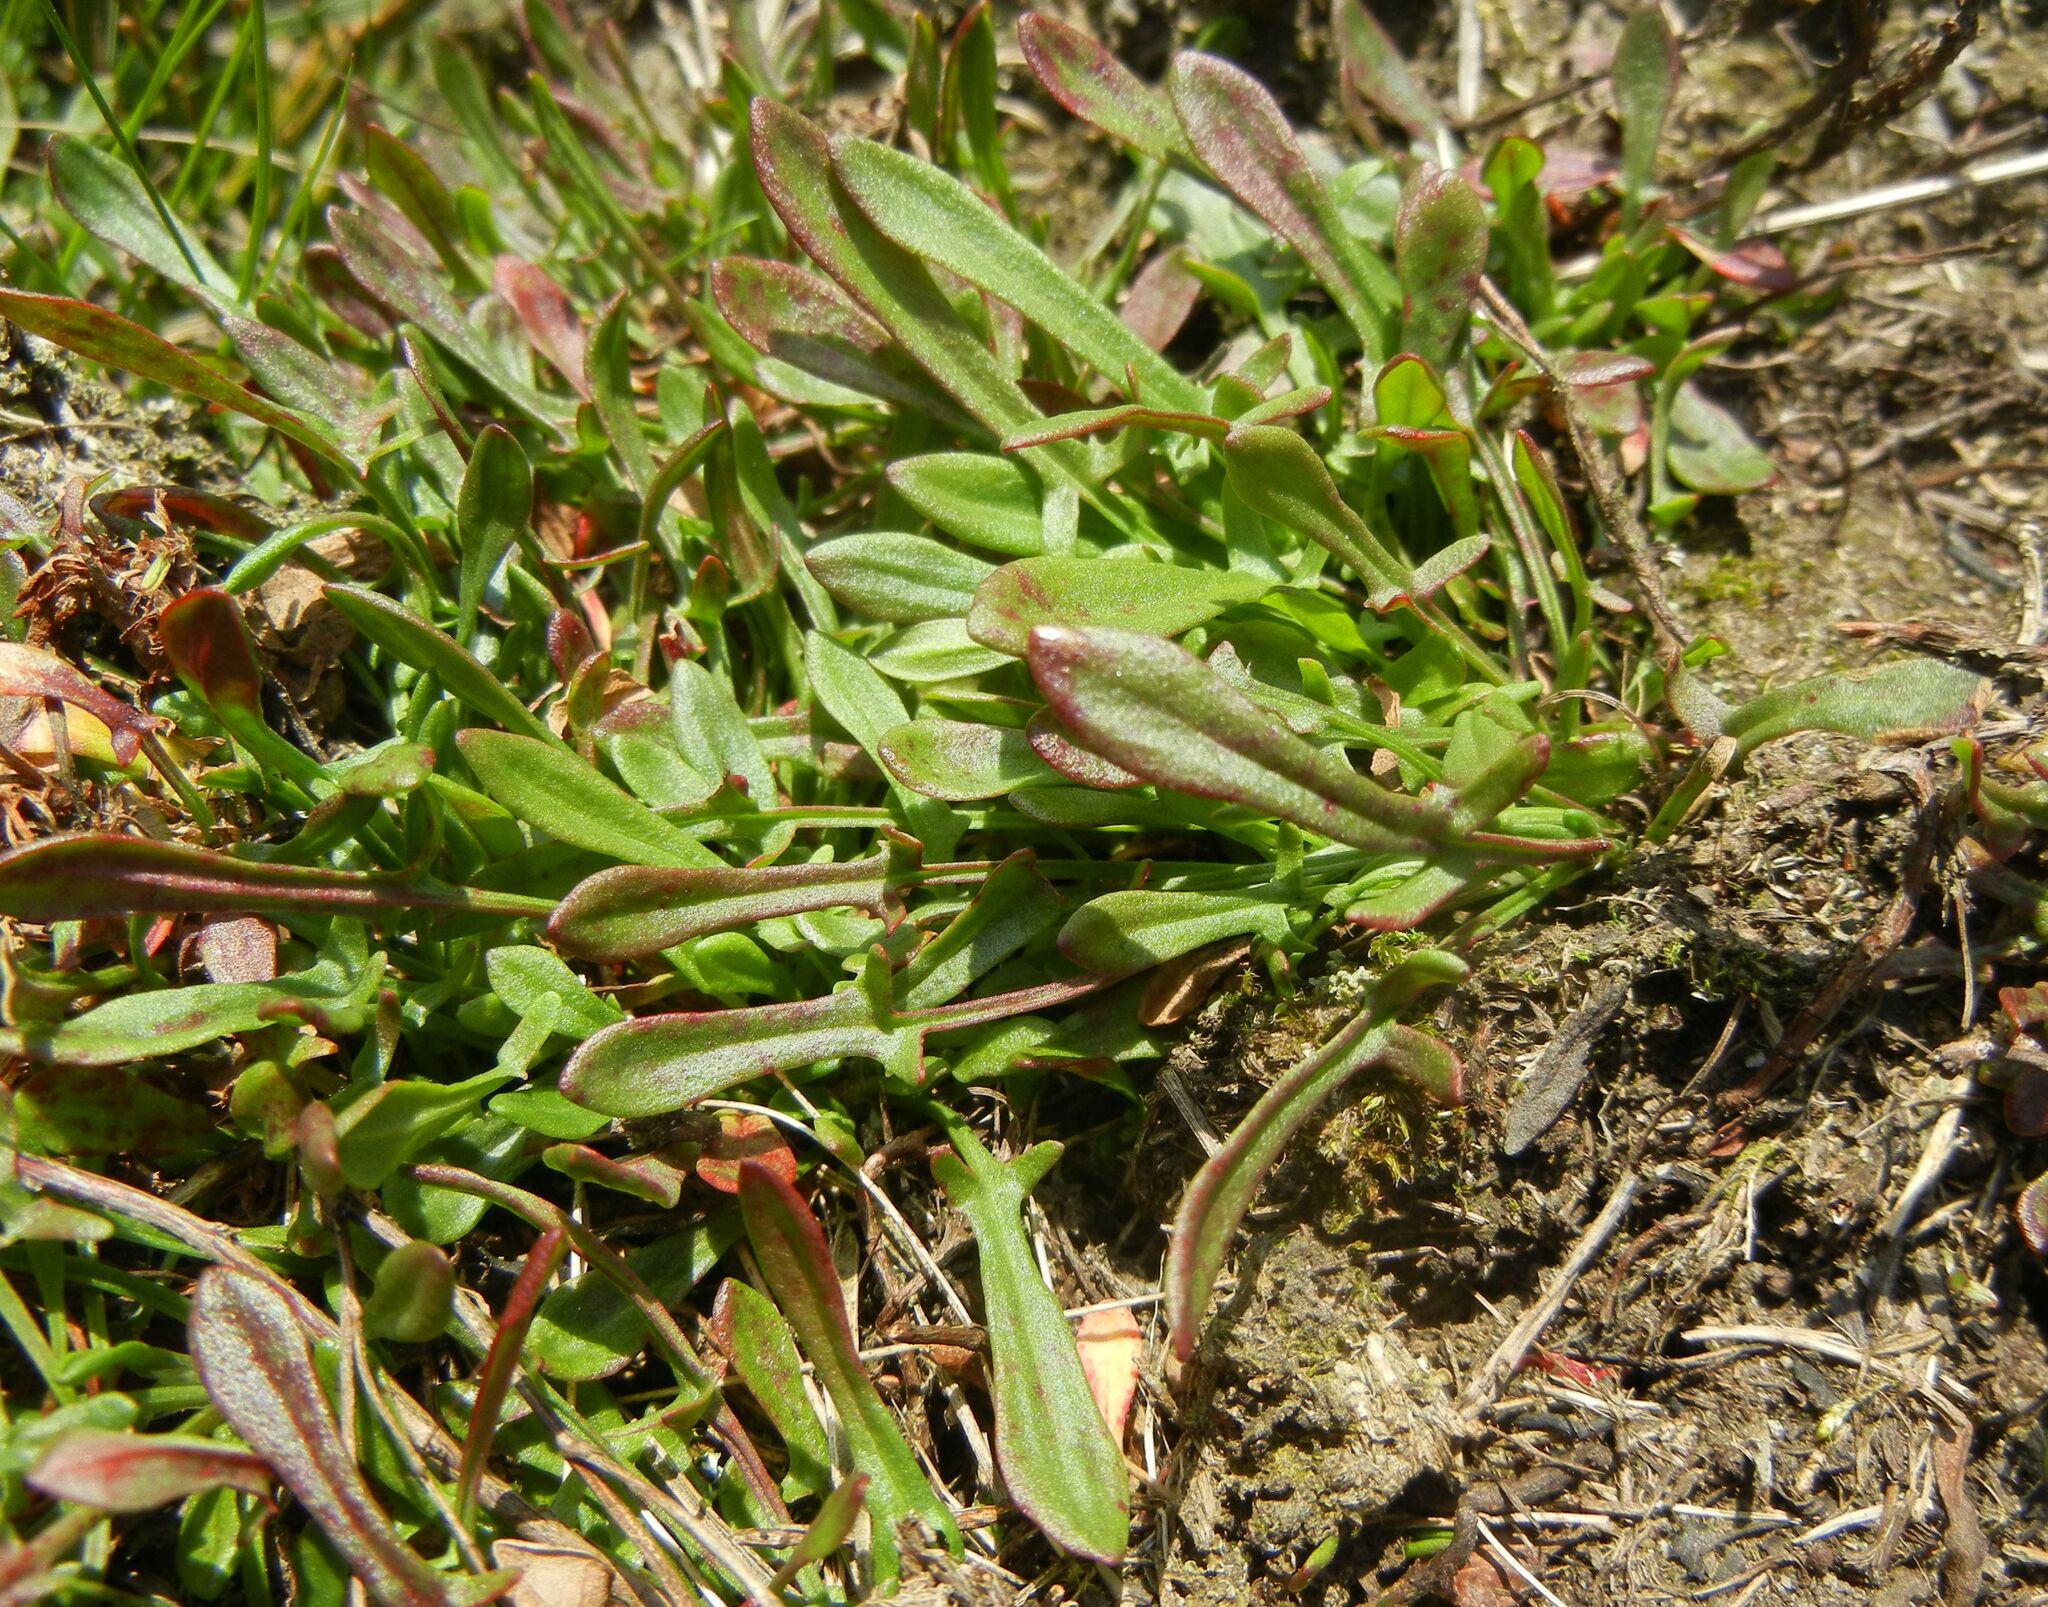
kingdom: Plantae
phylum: Tracheophyta
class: Magnoliopsida
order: Caryophyllales
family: Polygonaceae
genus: Rumex
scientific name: Rumex acetosella
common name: Common sheep sorrel
